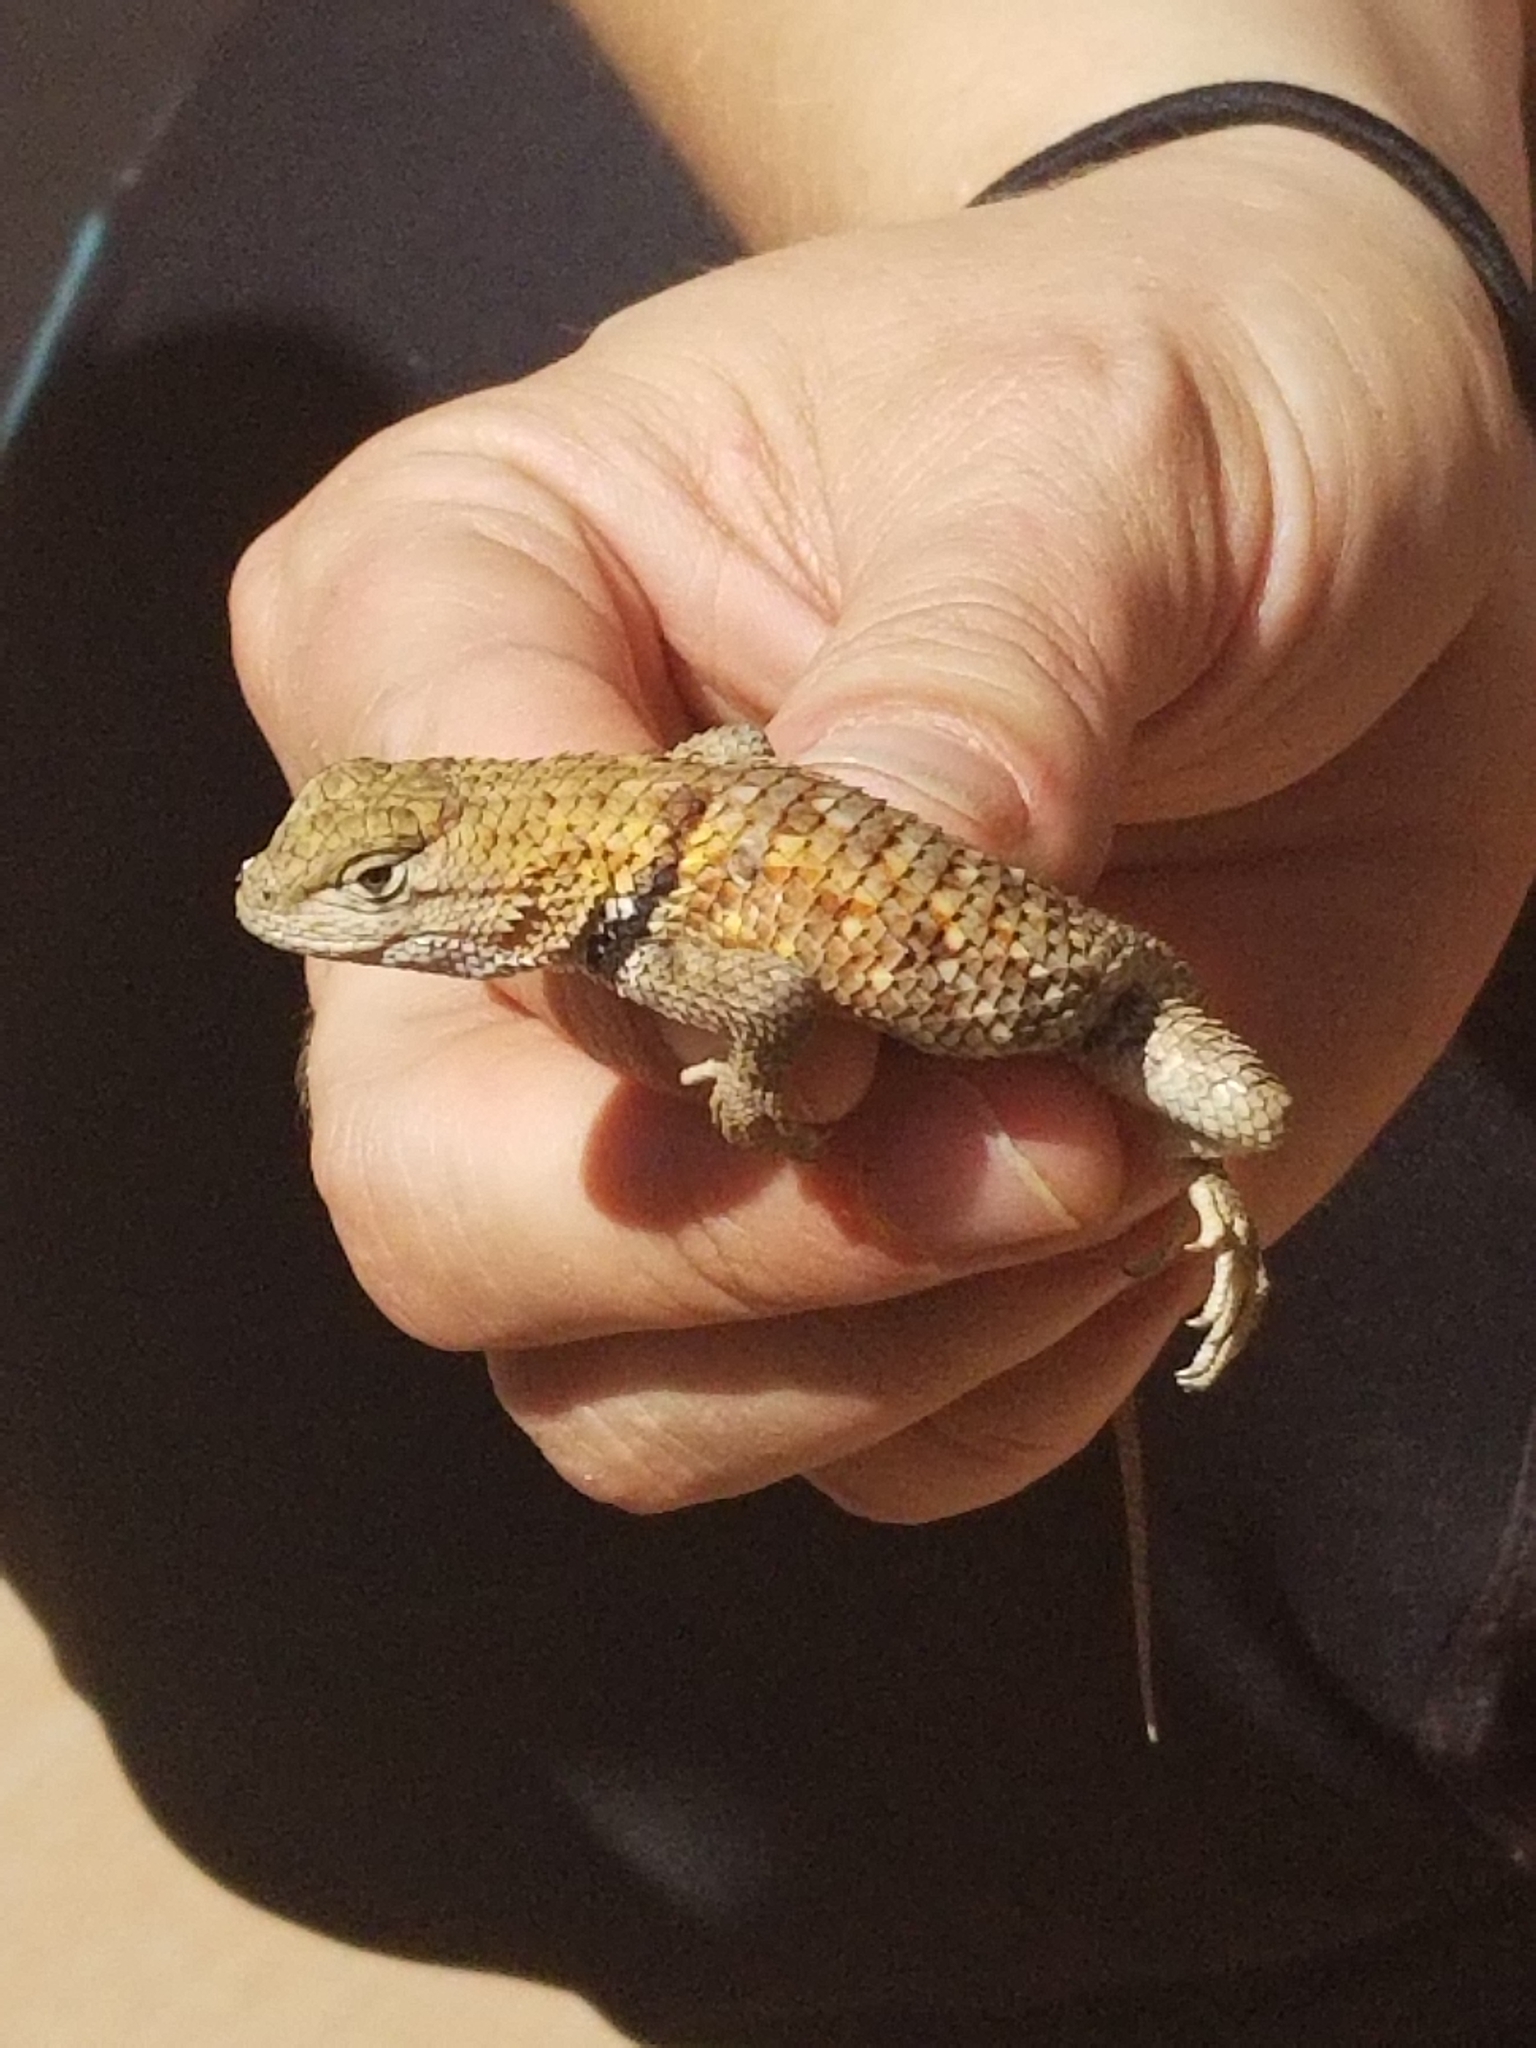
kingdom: Animalia
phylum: Chordata
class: Squamata
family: Phrynosomatidae
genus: Sceloporus
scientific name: Sceloporus uniformis
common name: Yellow-backed spiny lizard
